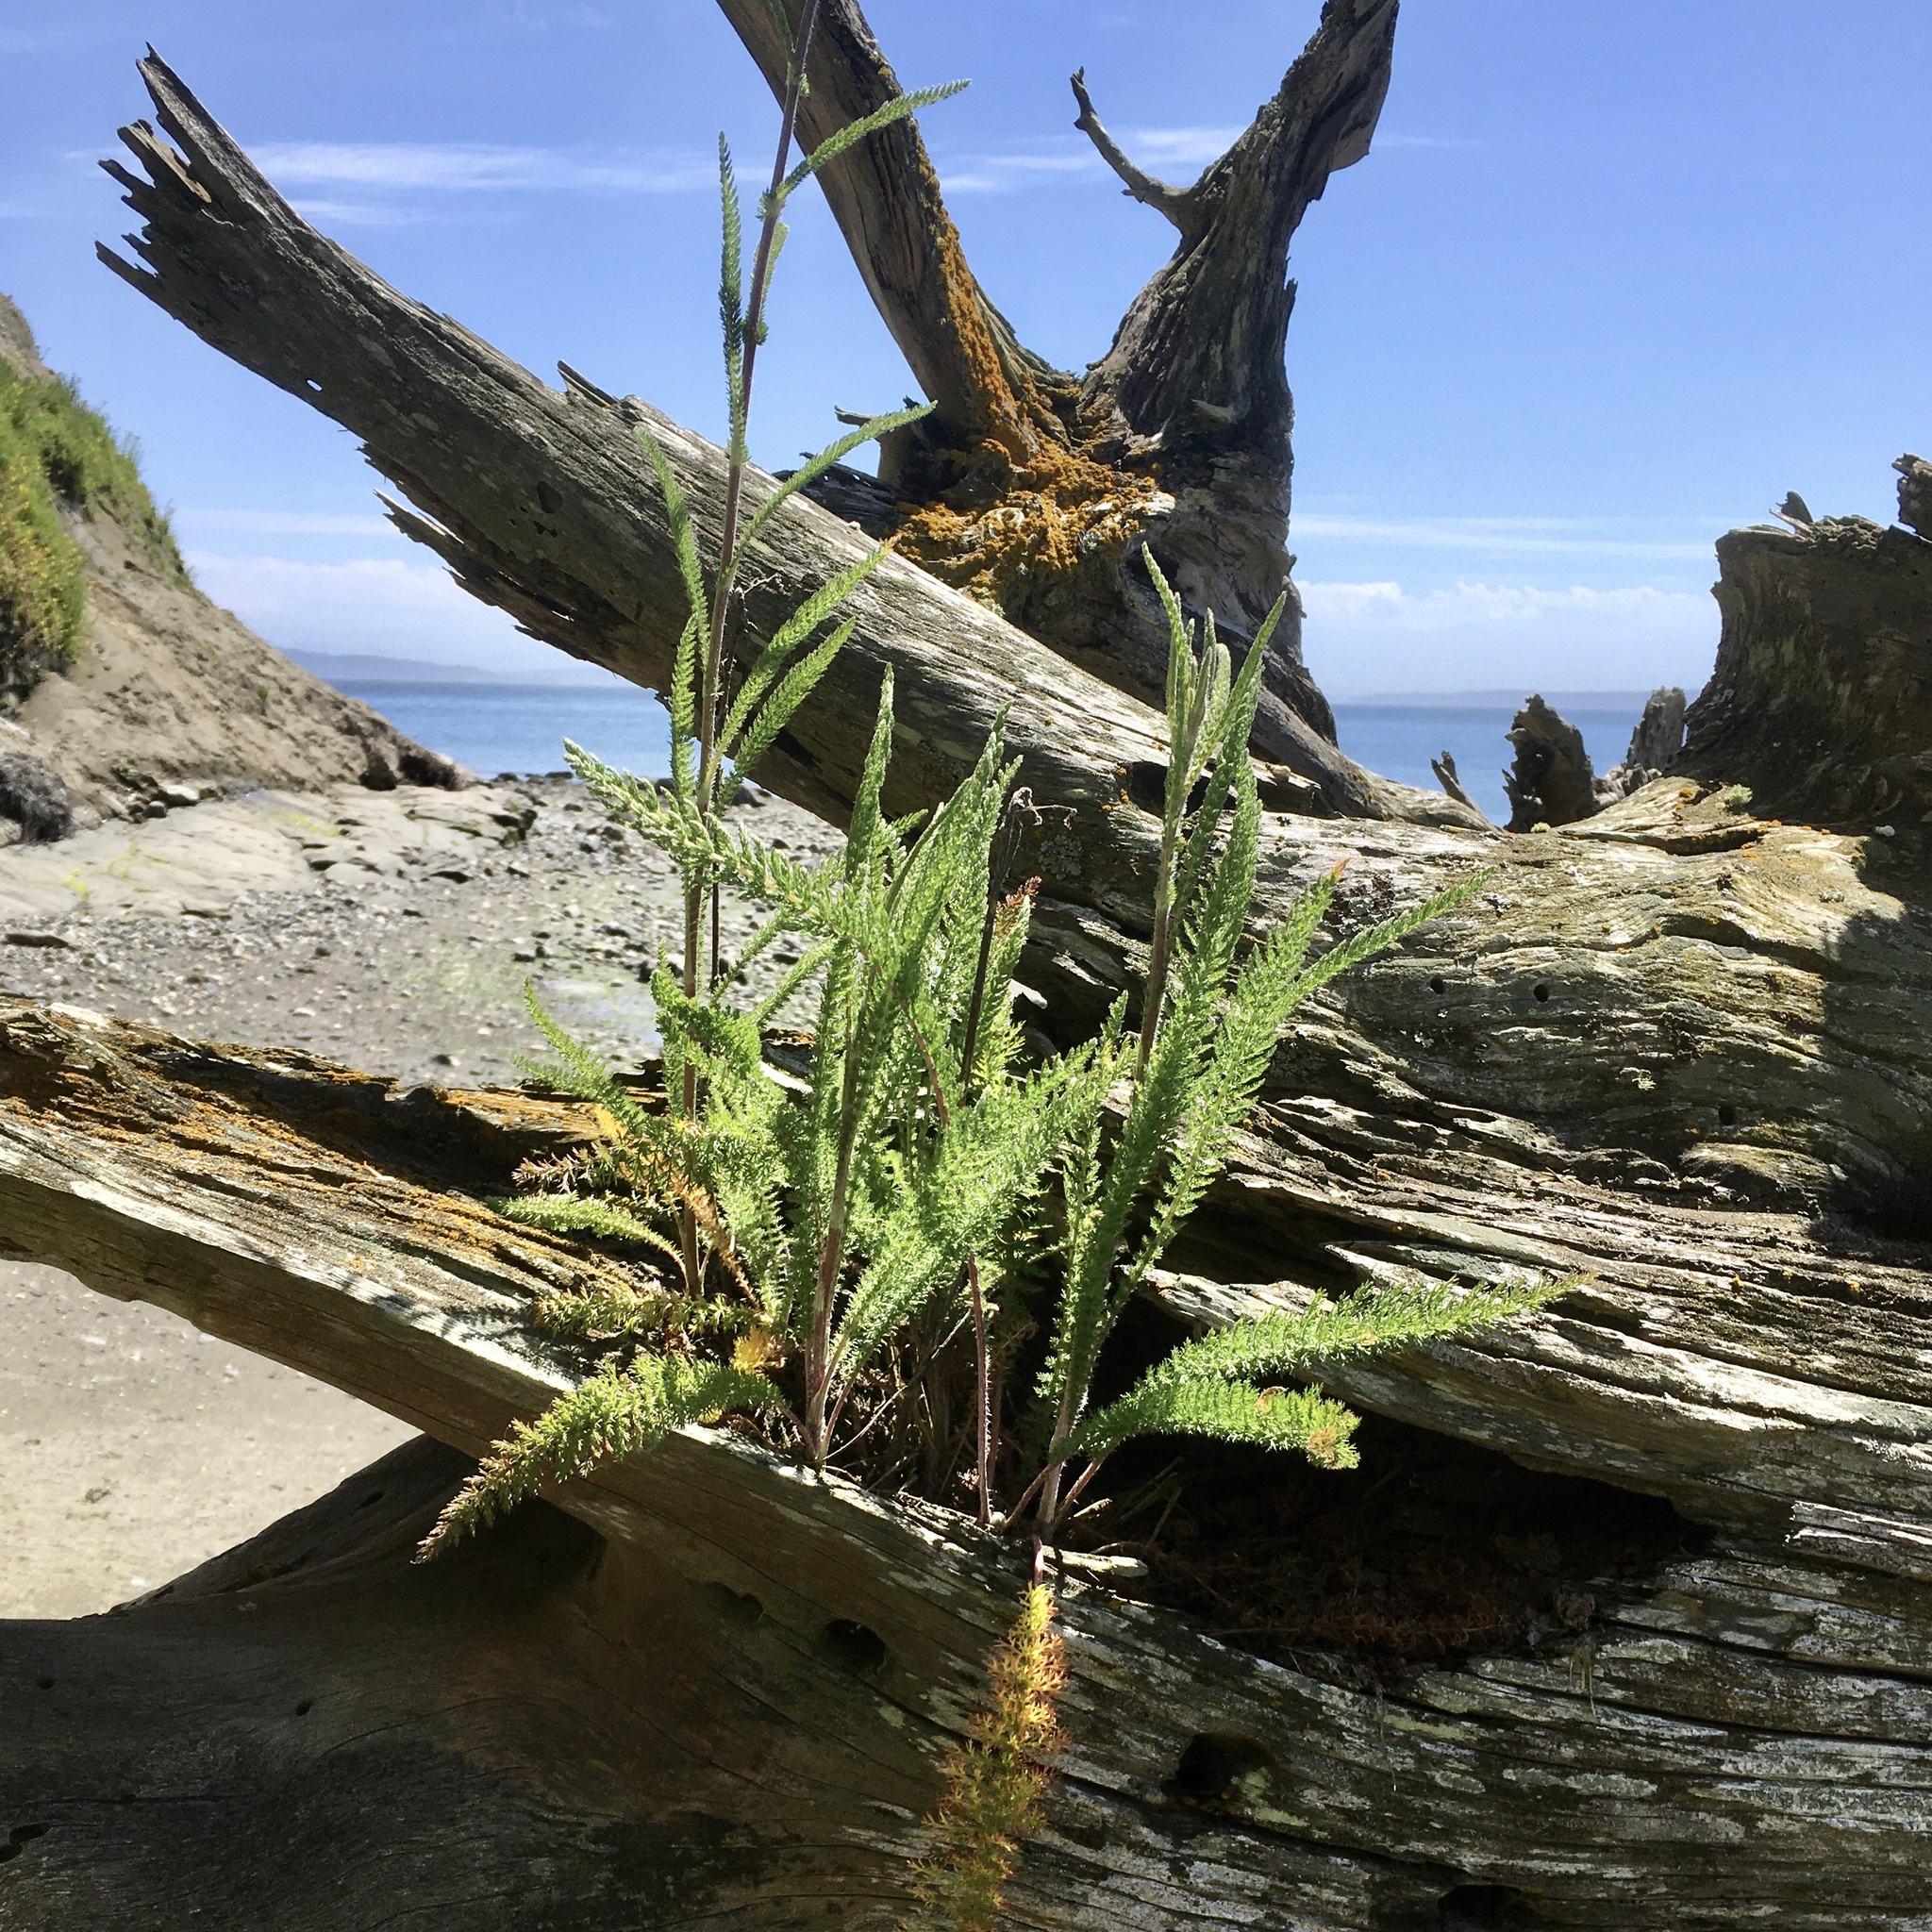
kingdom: Plantae
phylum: Tracheophyta
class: Magnoliopsida
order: Asterales
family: Asteraceae
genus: Achillea
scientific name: Achillea millefolium
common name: Yarrow
